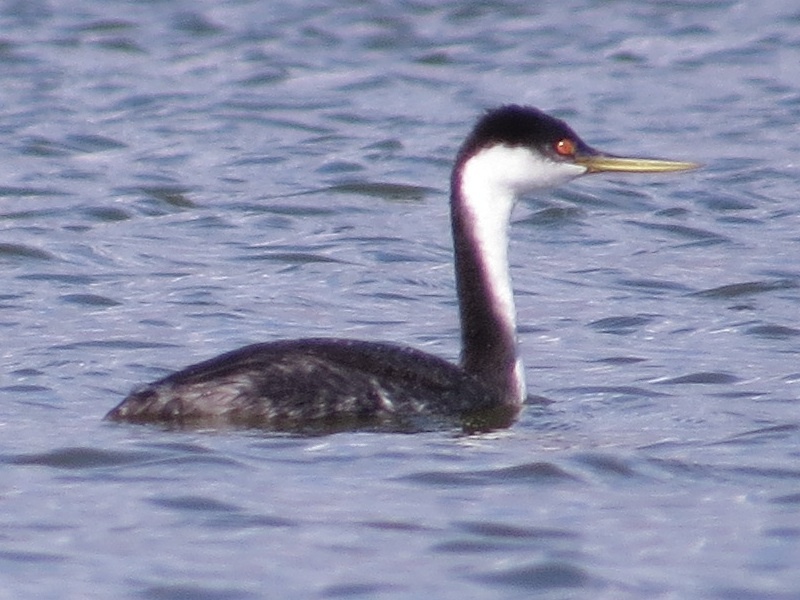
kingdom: Animalia
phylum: Chordata
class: Aves
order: Podicipediformes
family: Podicipedidae
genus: Aechmophorus
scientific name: Aechmophorus occidentalis
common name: Western grebe
